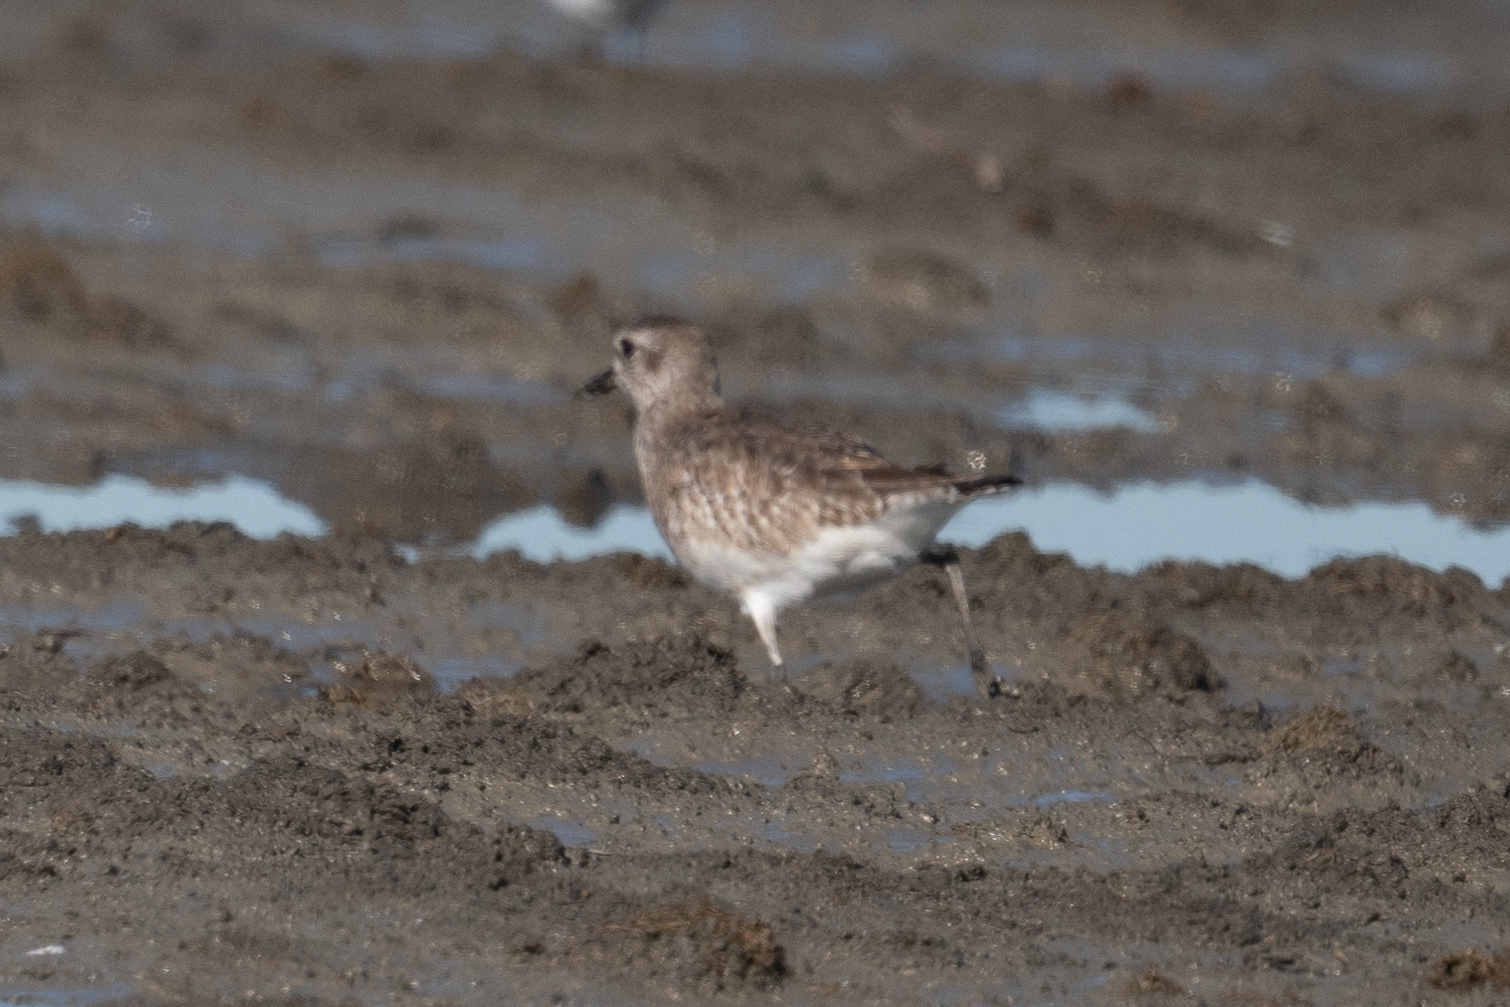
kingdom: Animalia
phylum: Chordata
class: Aves
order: Charadriiformes
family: Charadriidae
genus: Pluvialis
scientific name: Pluvialis squatarola
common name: Grey plover
